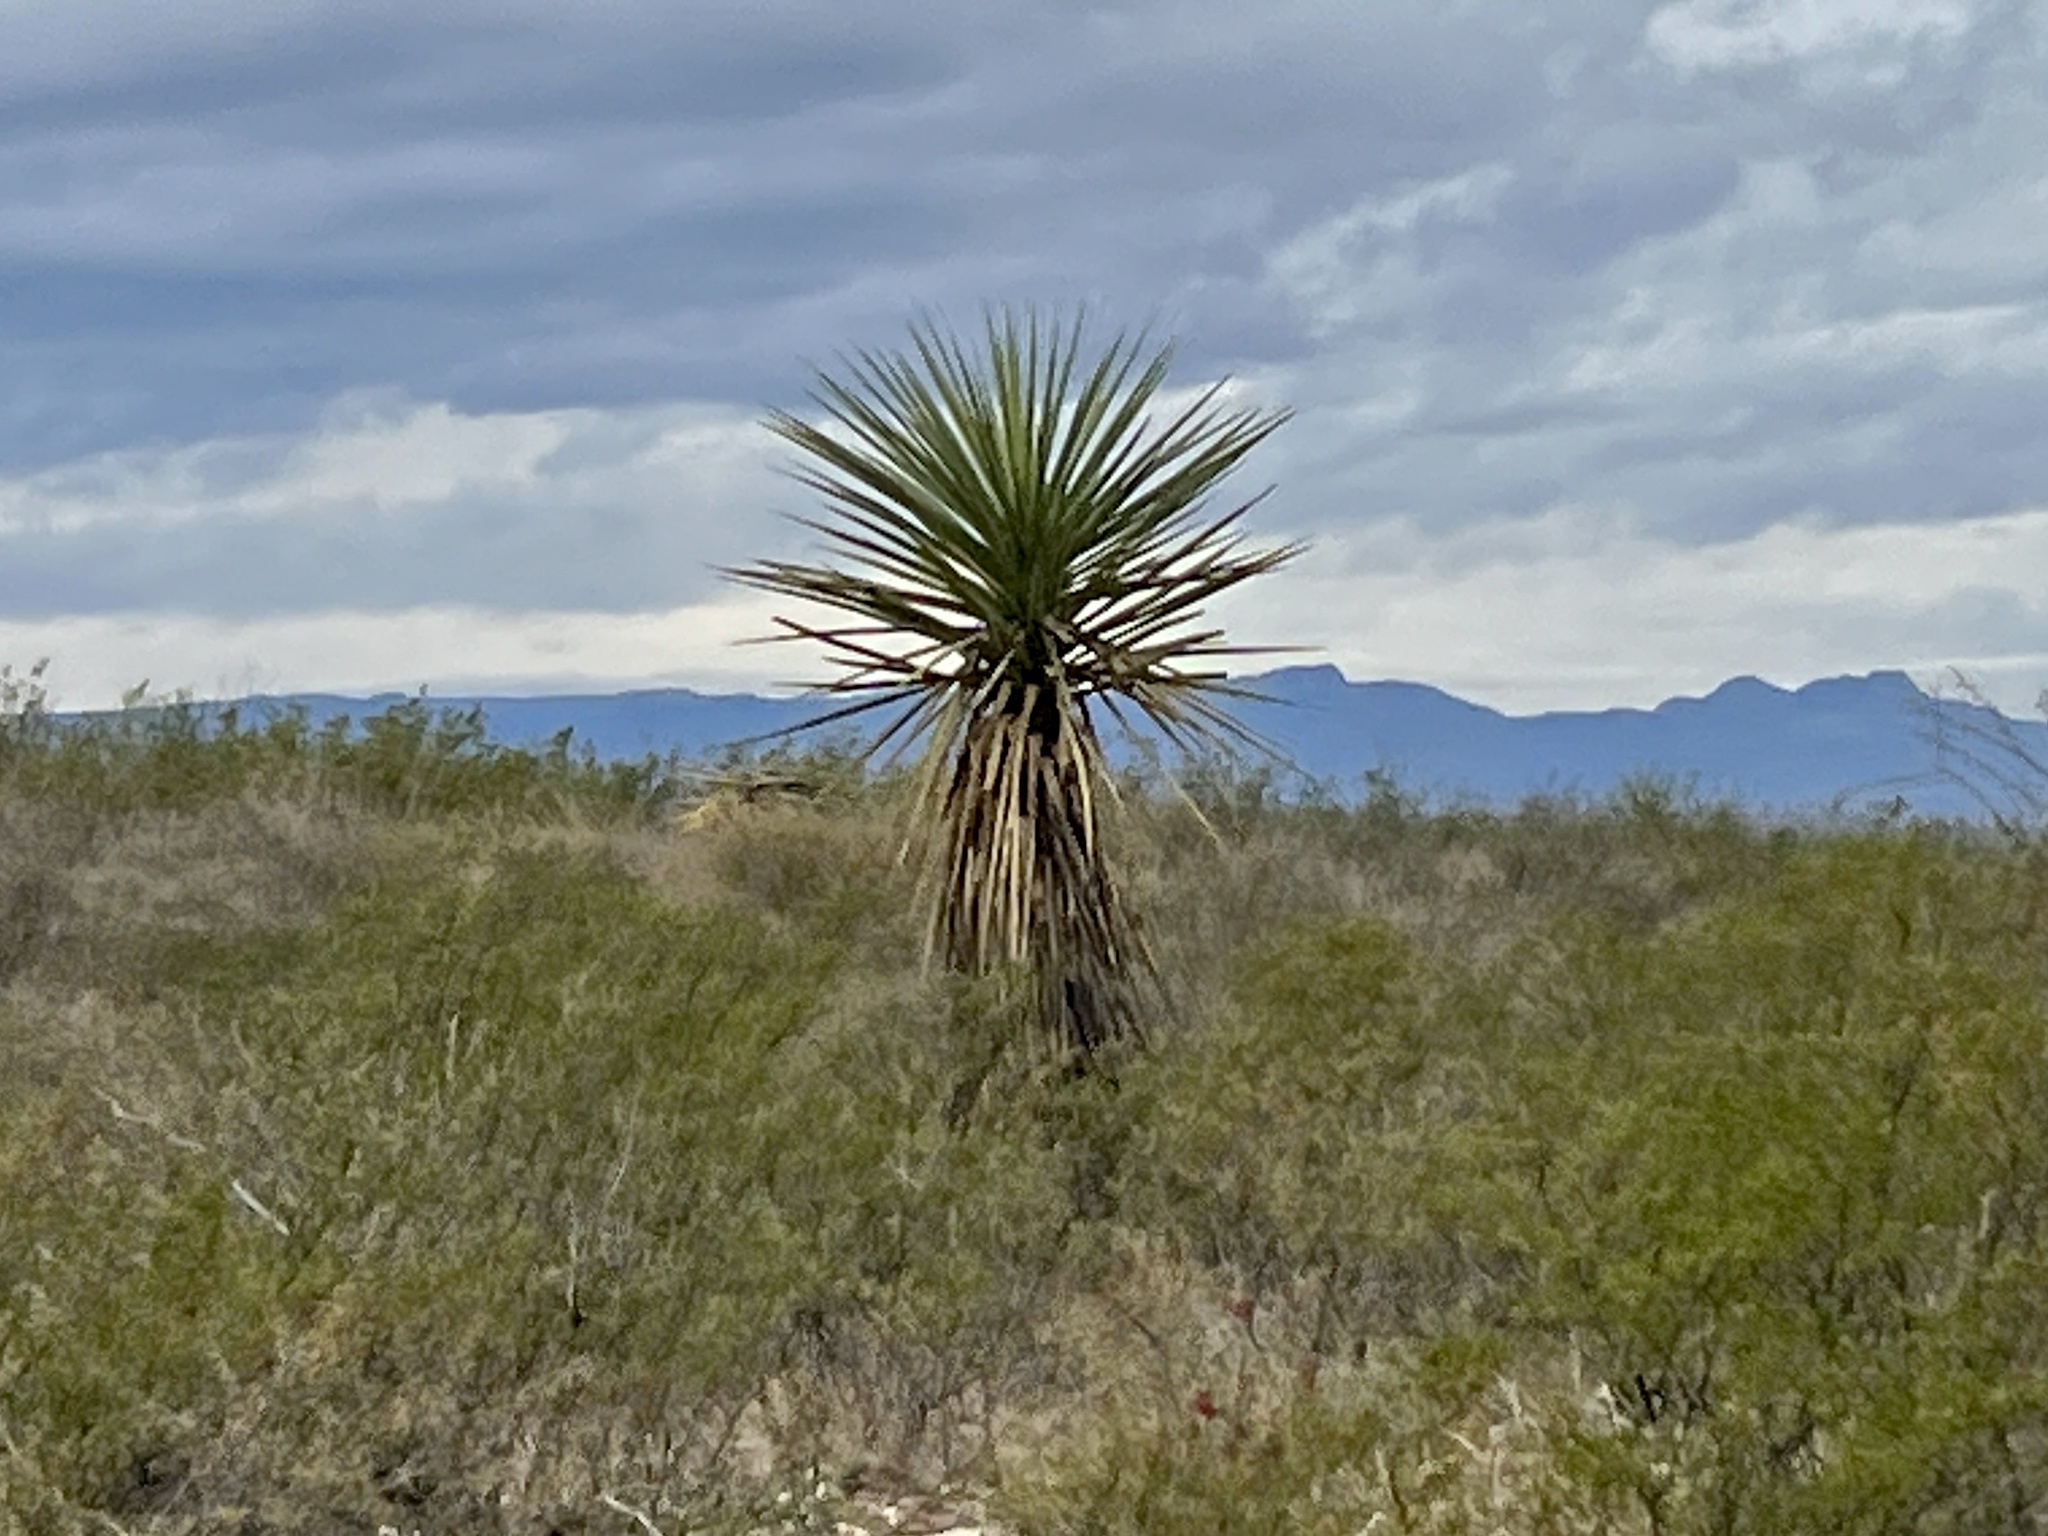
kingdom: Plantae
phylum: Tracheophyta
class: Liliopsida
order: Asparagales
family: Asparagaceae
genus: Yucca
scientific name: Yucca treculiana
